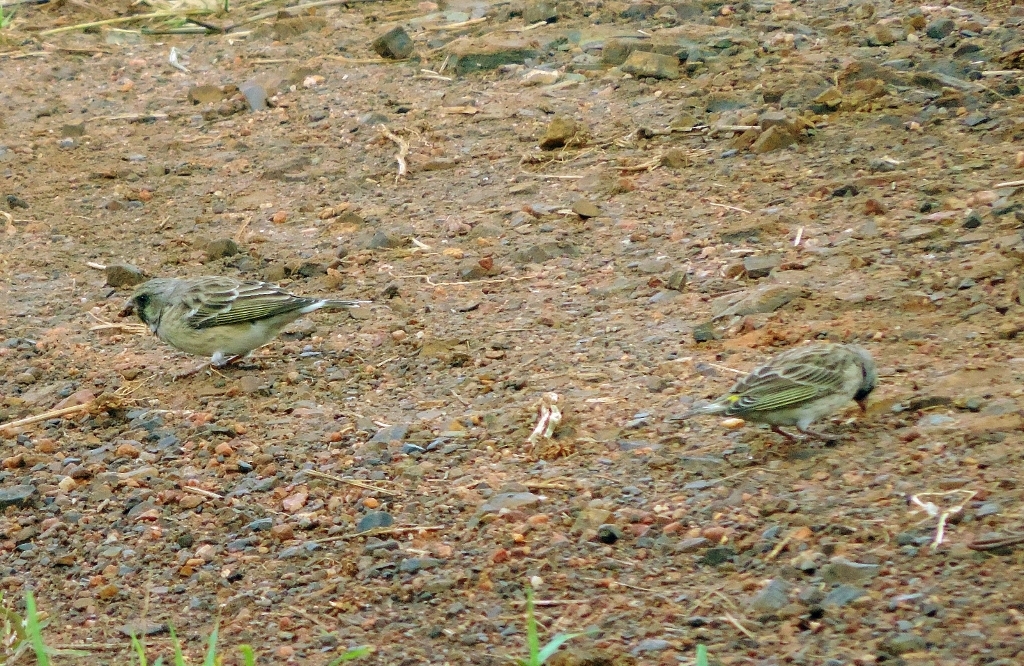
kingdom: Animalia
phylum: Chordata
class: Aves
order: Passeriformes
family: Fringillidae
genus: Crithagra
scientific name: Crithagra atrogularis
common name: Black-throated canary
